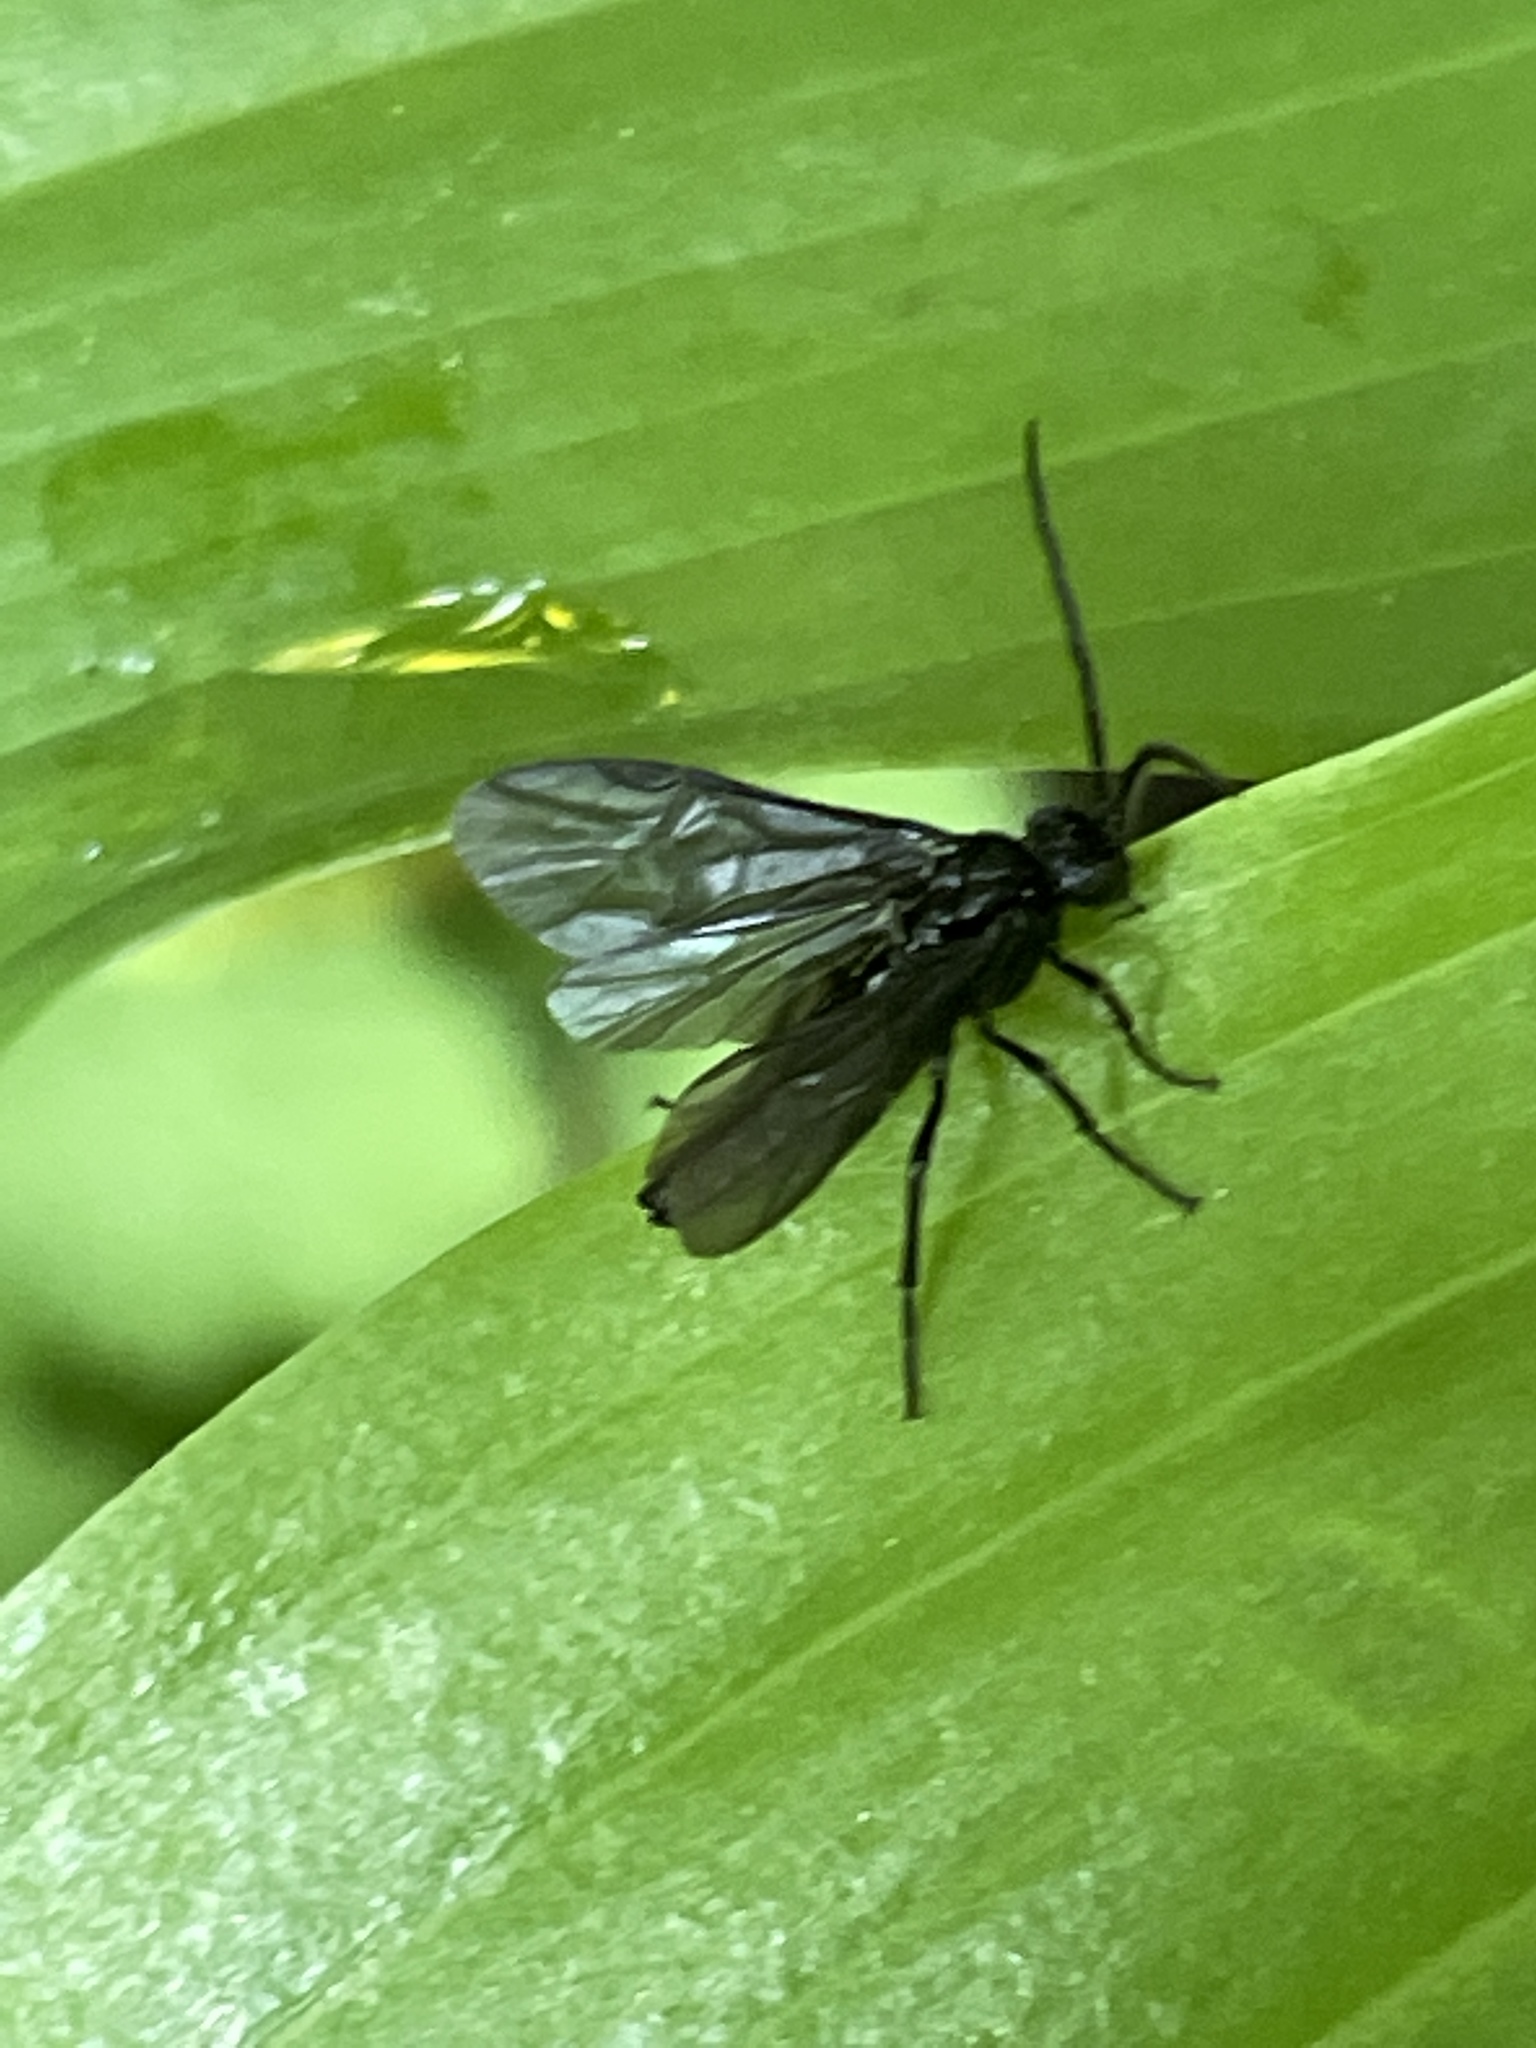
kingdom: Animalia
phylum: Arthropoda
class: Insecta
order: Hymenoptera
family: Tenthredinidae
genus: Phymatocera
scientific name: Phymatocera aterrima
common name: Solomon's-seal sawfly
